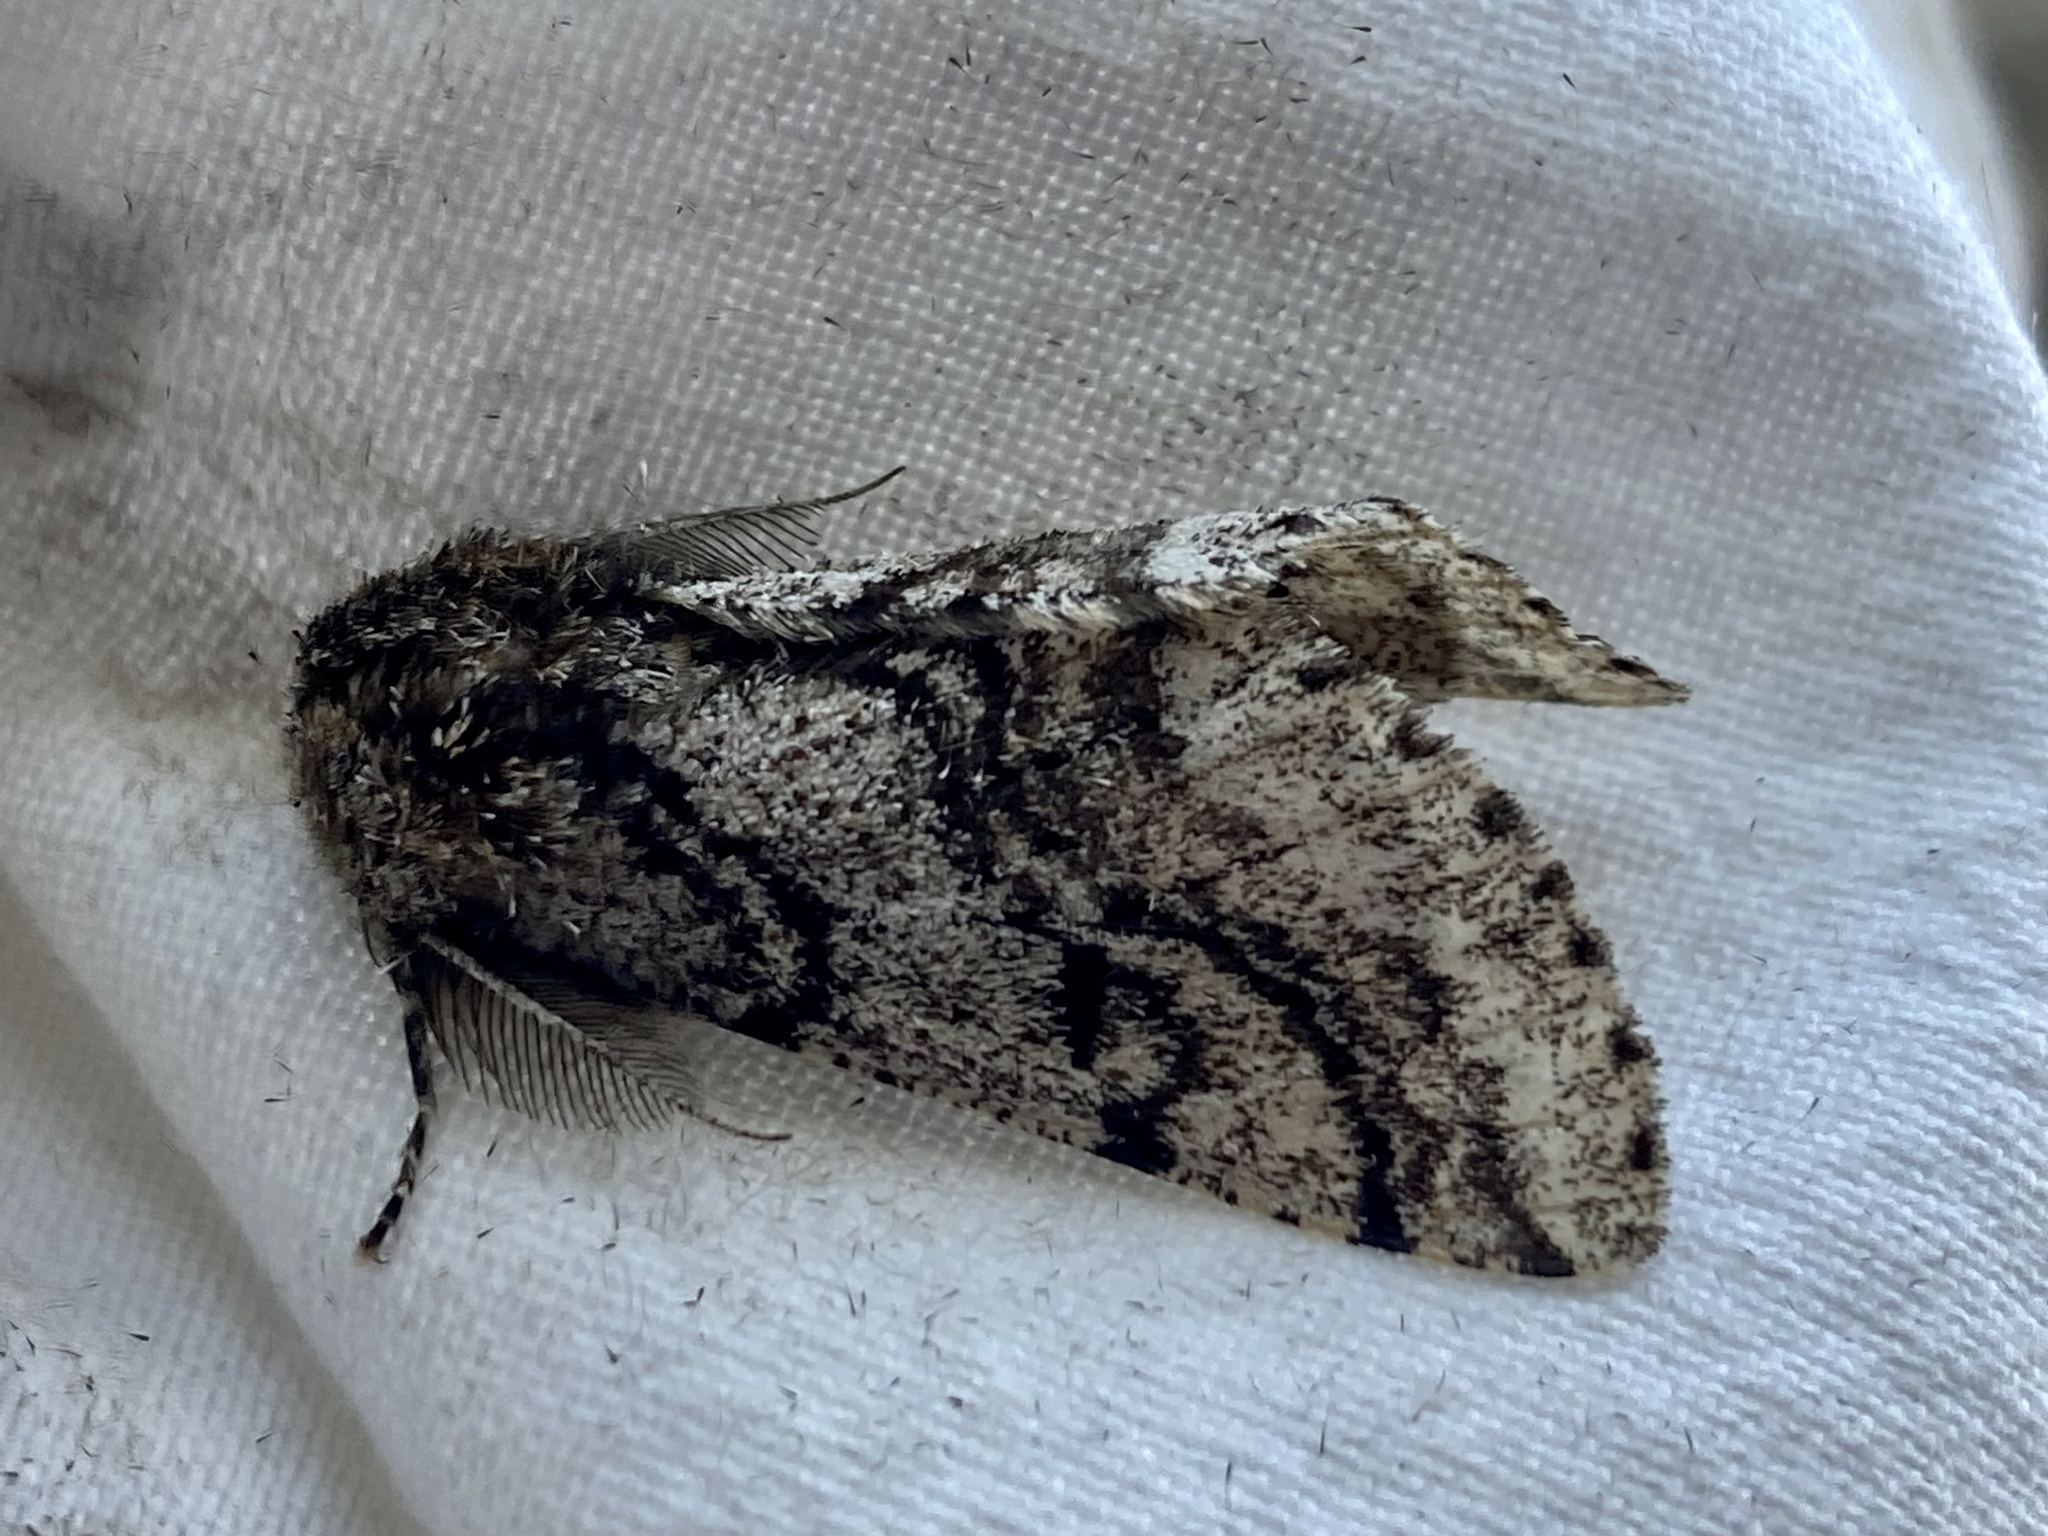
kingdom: Animalia
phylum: Arthropoda
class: Insecta
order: Lepidoptera
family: Geometridae
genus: Lycia
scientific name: Lycia hirtaria
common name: Brindled beauty
